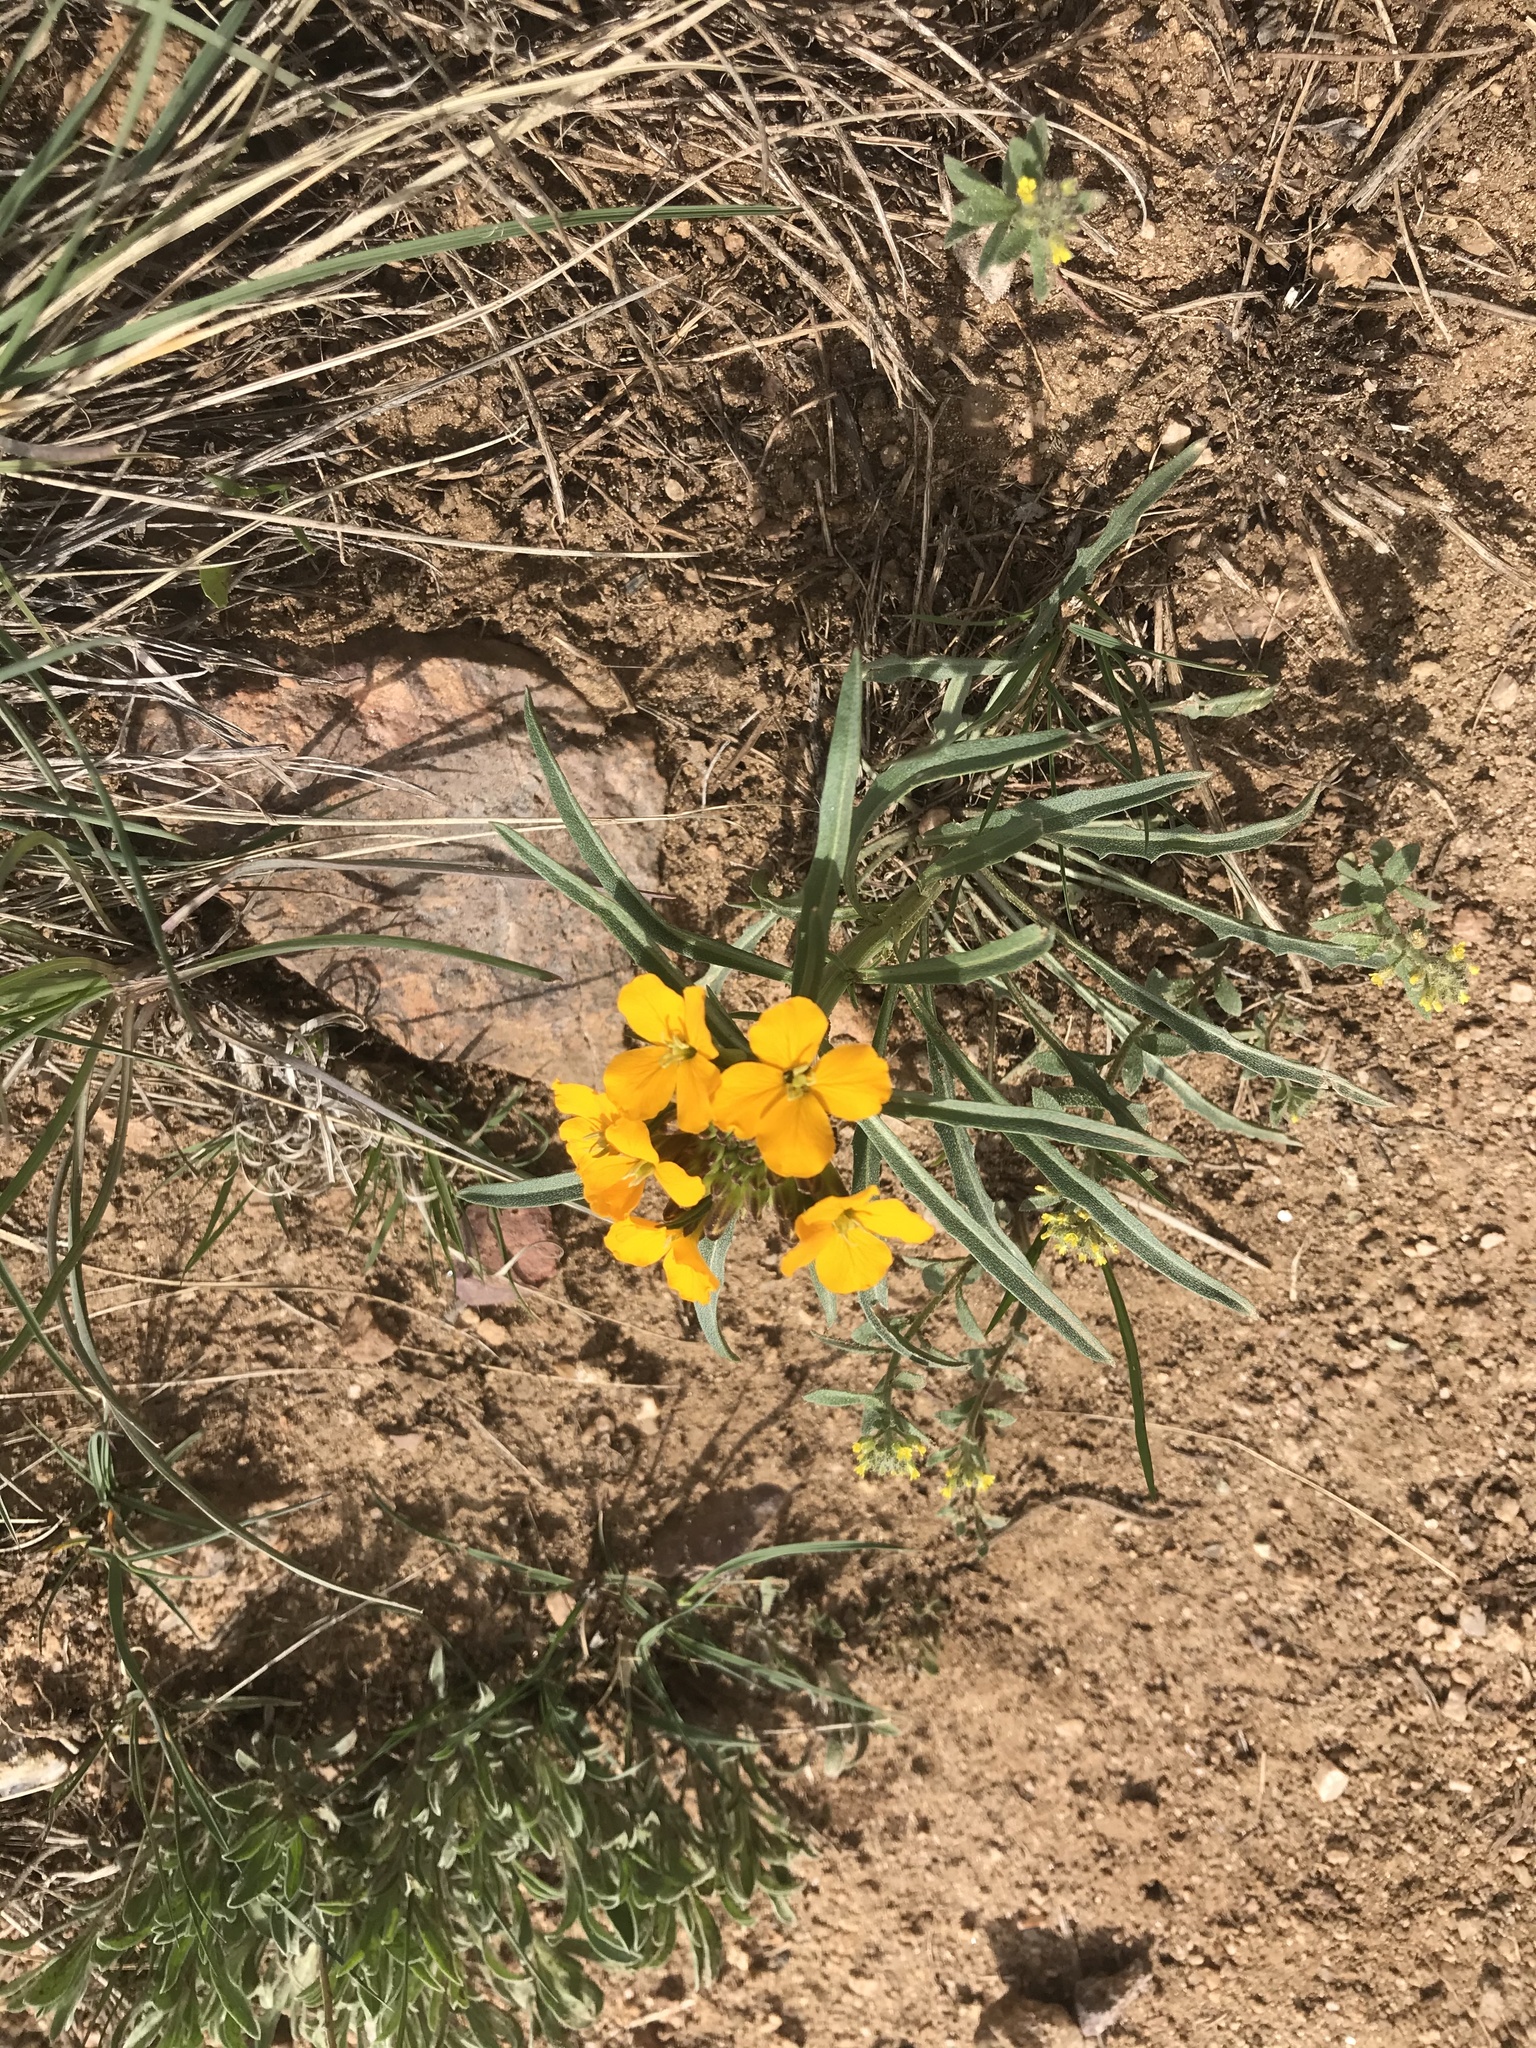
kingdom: Plantae
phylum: Tracheophyta
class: Magnoliopsida
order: Brassicales
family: Brassicaceae
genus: Erysimum
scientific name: Erysimum capitatum
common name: Western wallflower
